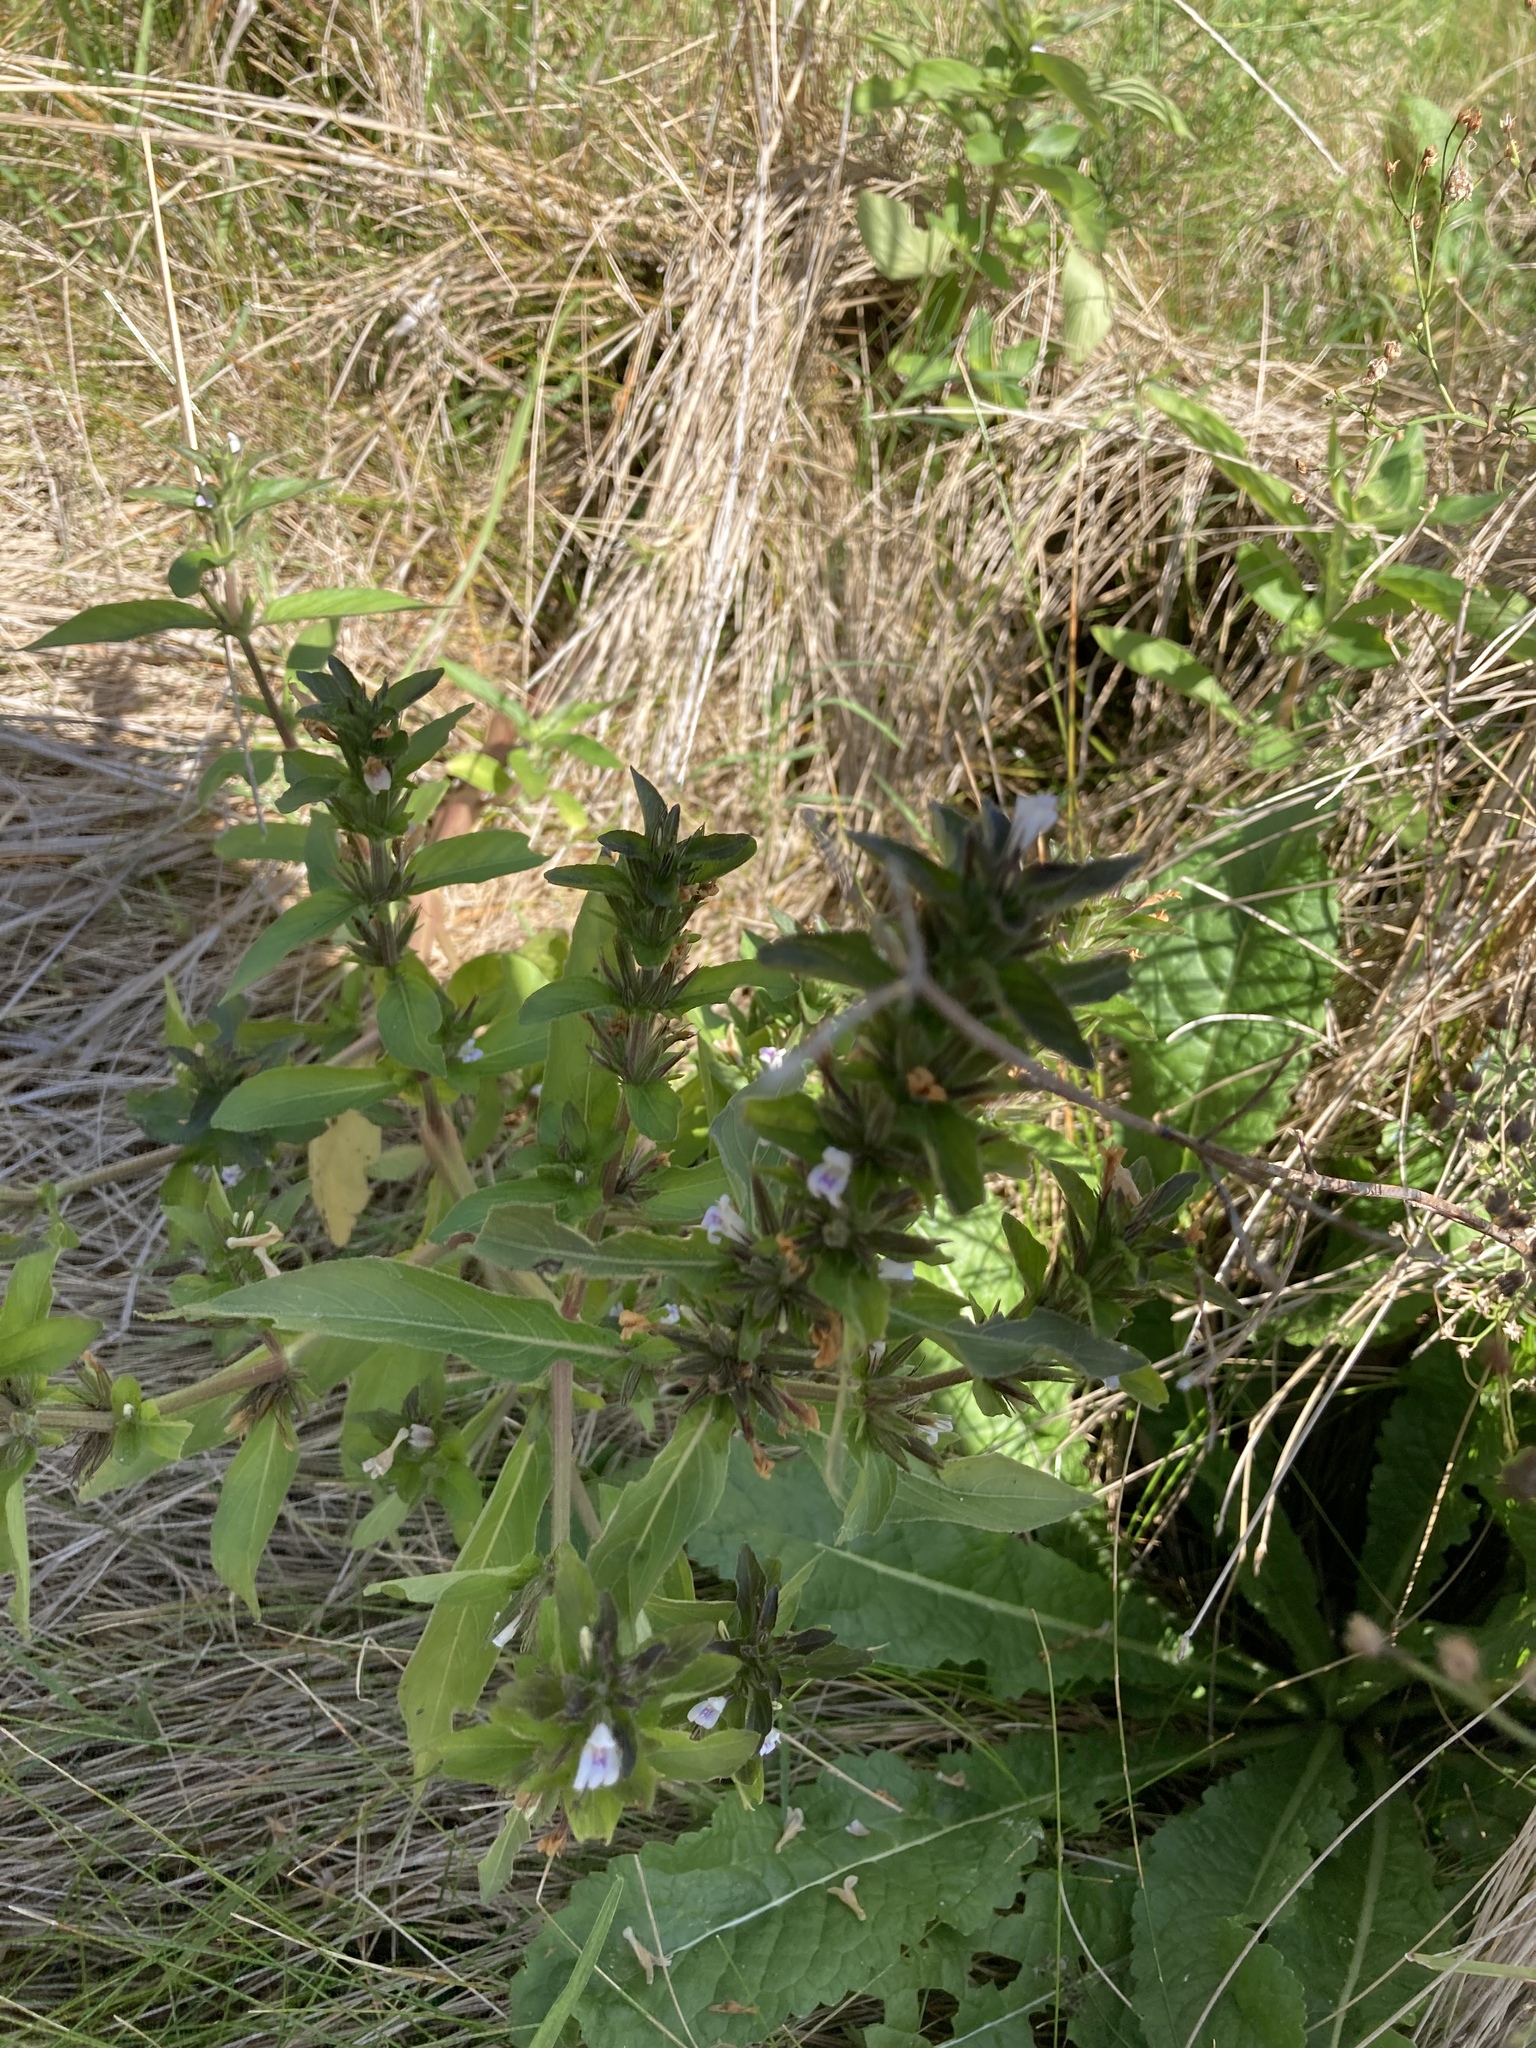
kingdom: Plantae
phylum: Tracheophyta
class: Magnoliopsida
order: Lamiales
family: Acanthaceae
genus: Hygrophila
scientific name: Hygrophila costata
